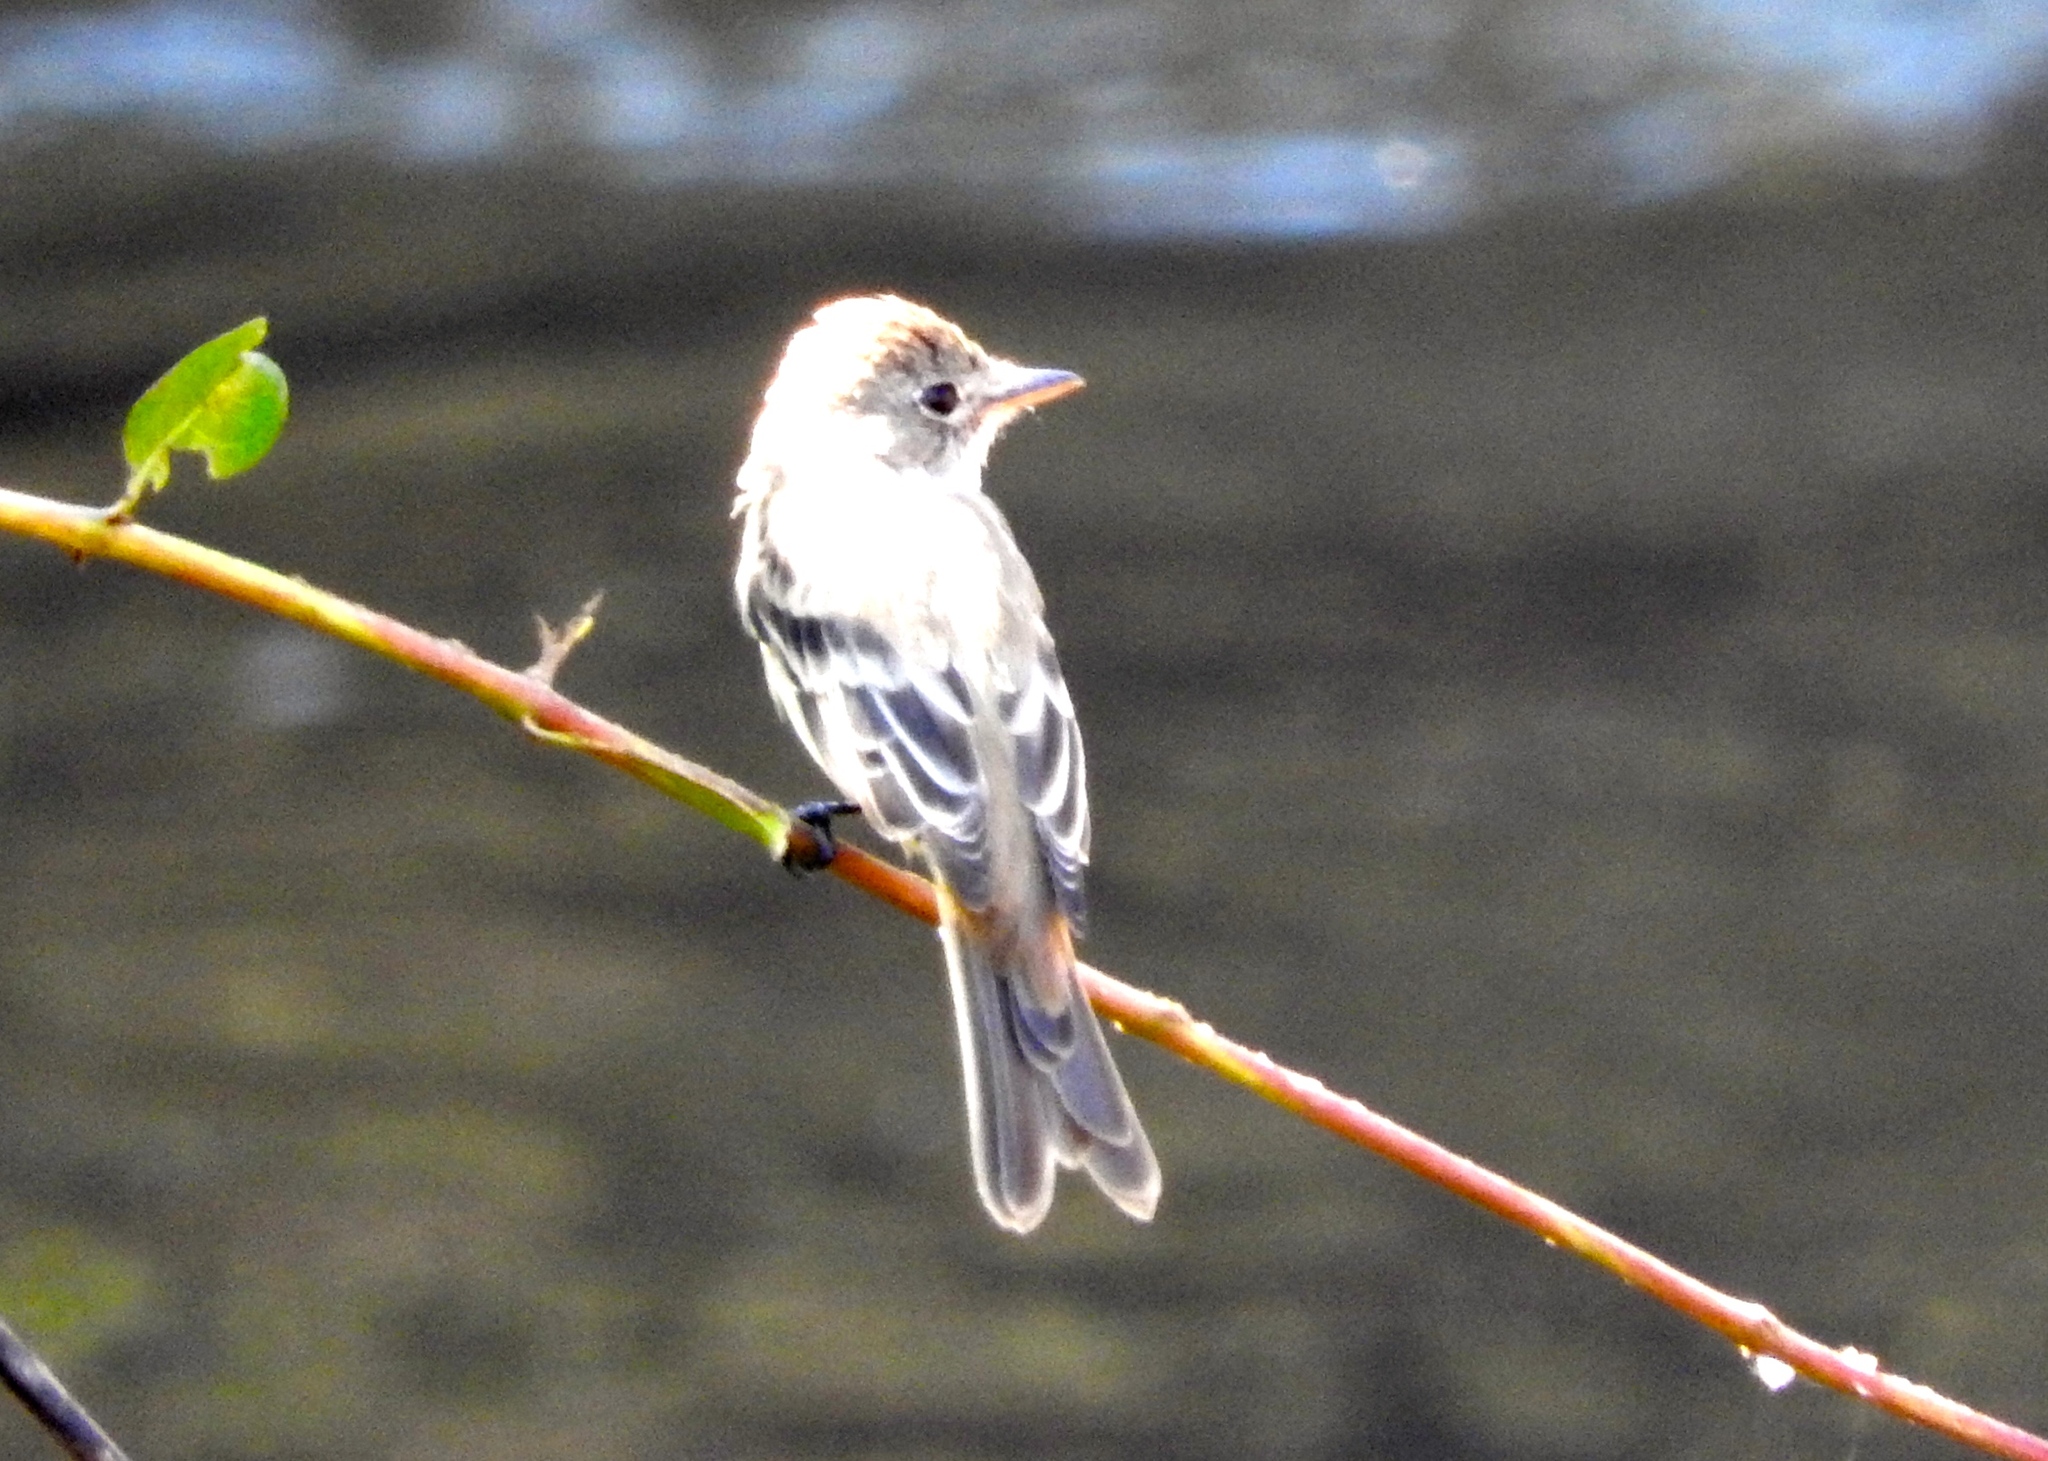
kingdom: Animalia
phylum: Chordata
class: Aves
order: Passeriformes
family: Tyrannidae
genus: Empidonax
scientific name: Empidonax
